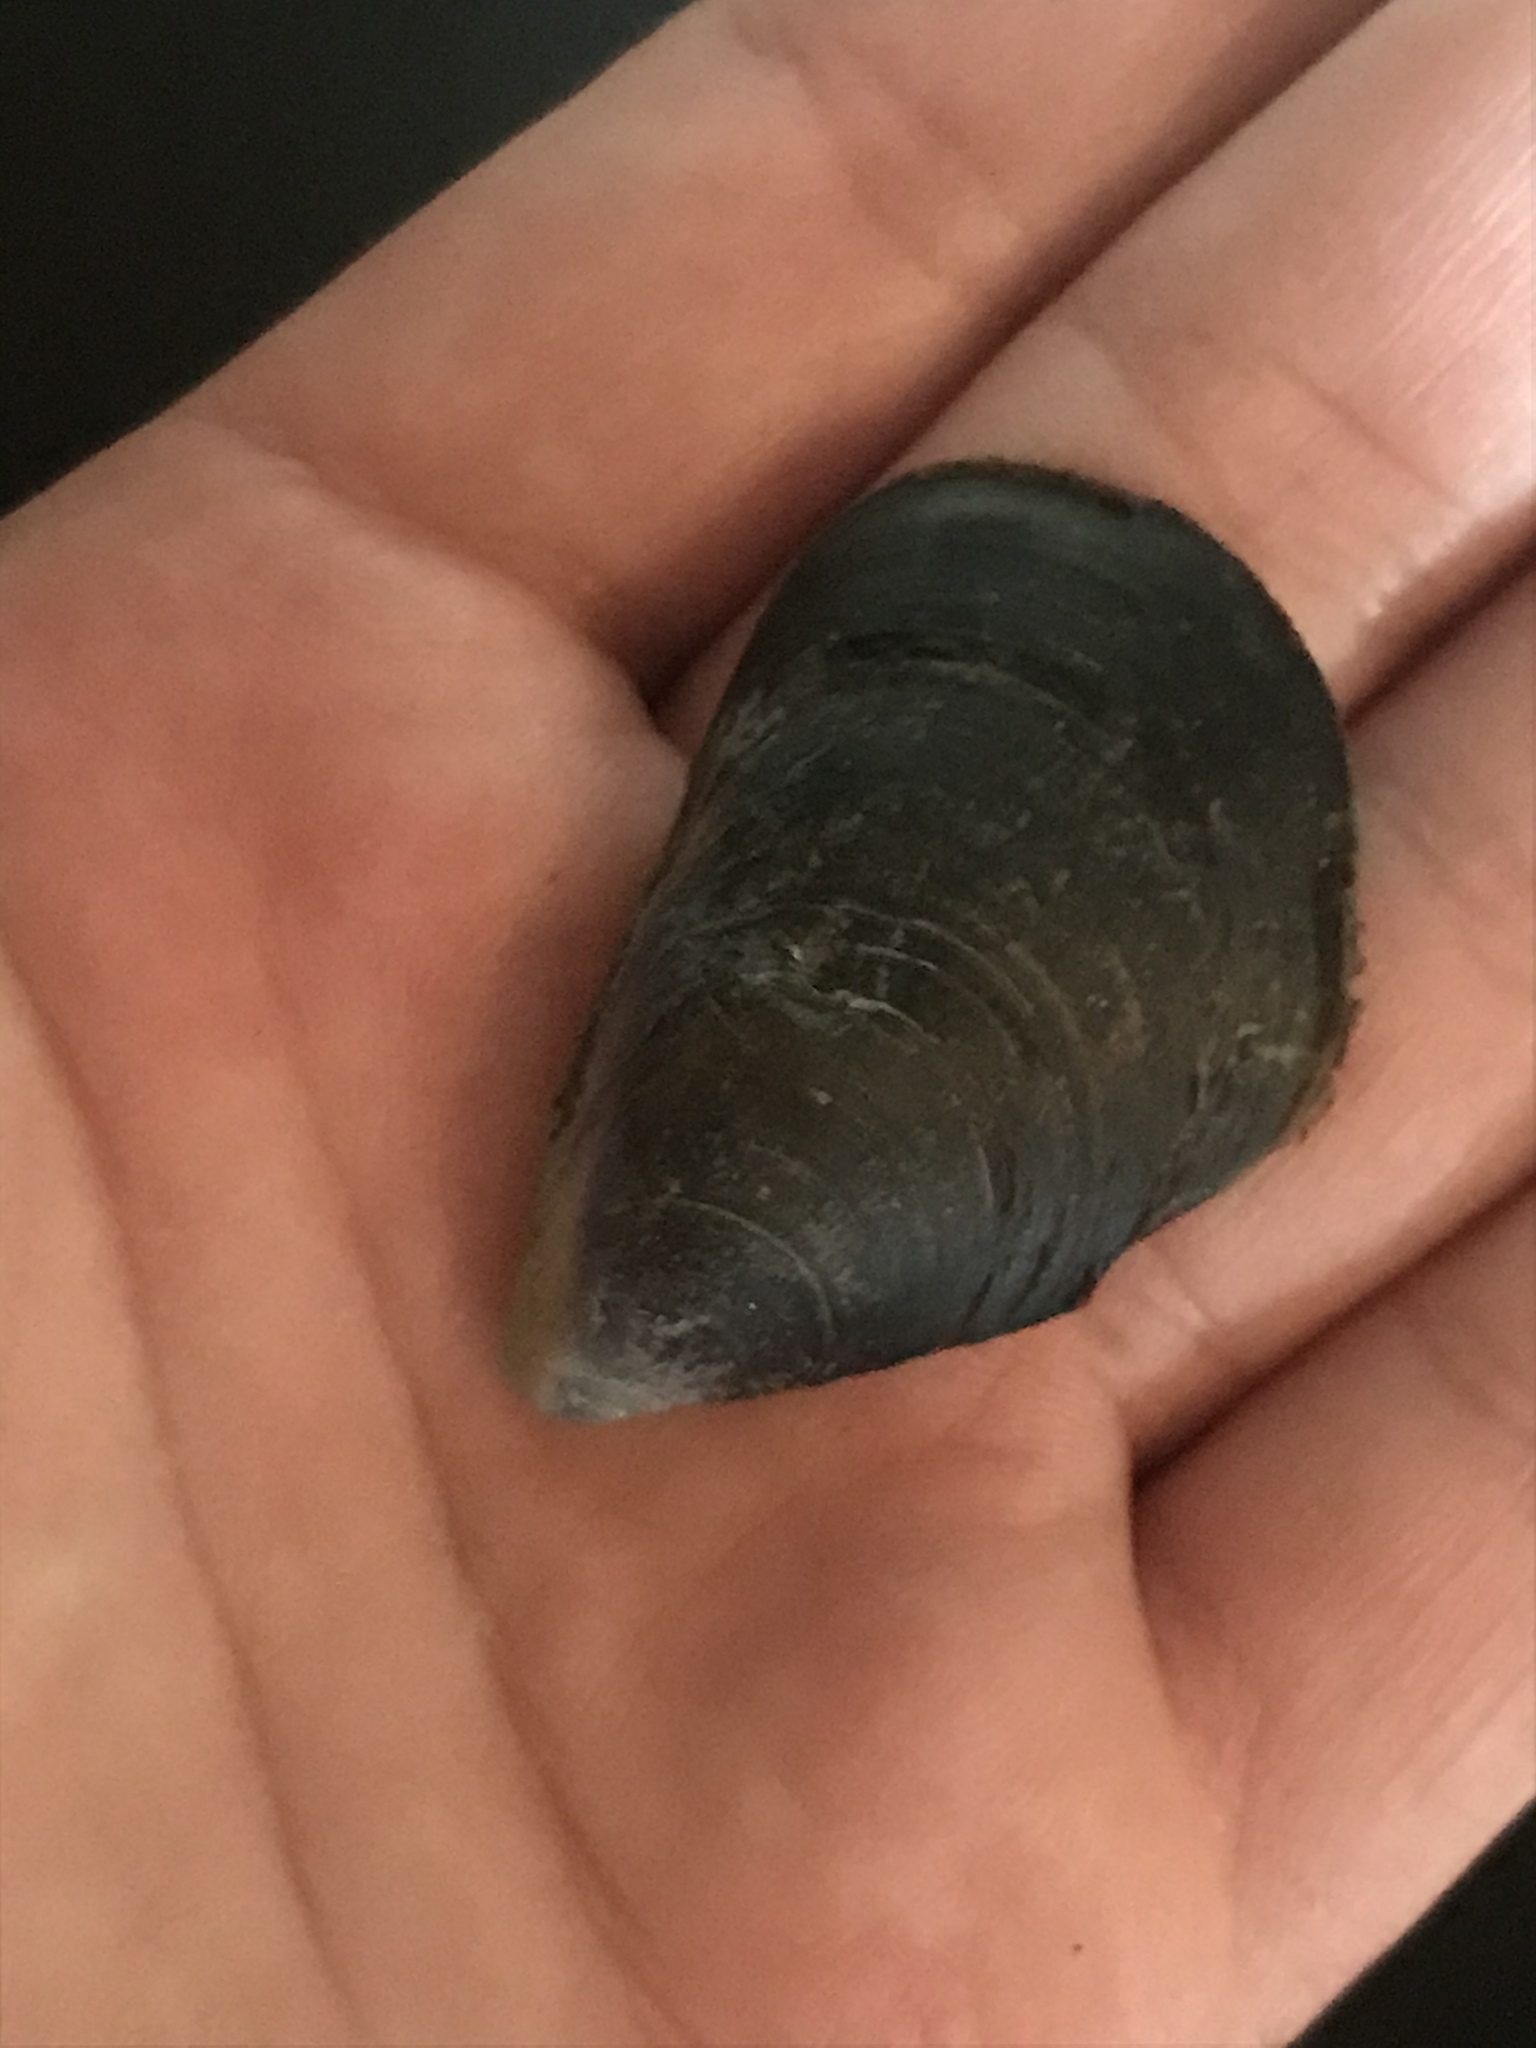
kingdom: Animalia
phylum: Mollusca
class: Bivalvia
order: Mytilida
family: Mytilidae
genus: Mytilus
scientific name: Mytilus
